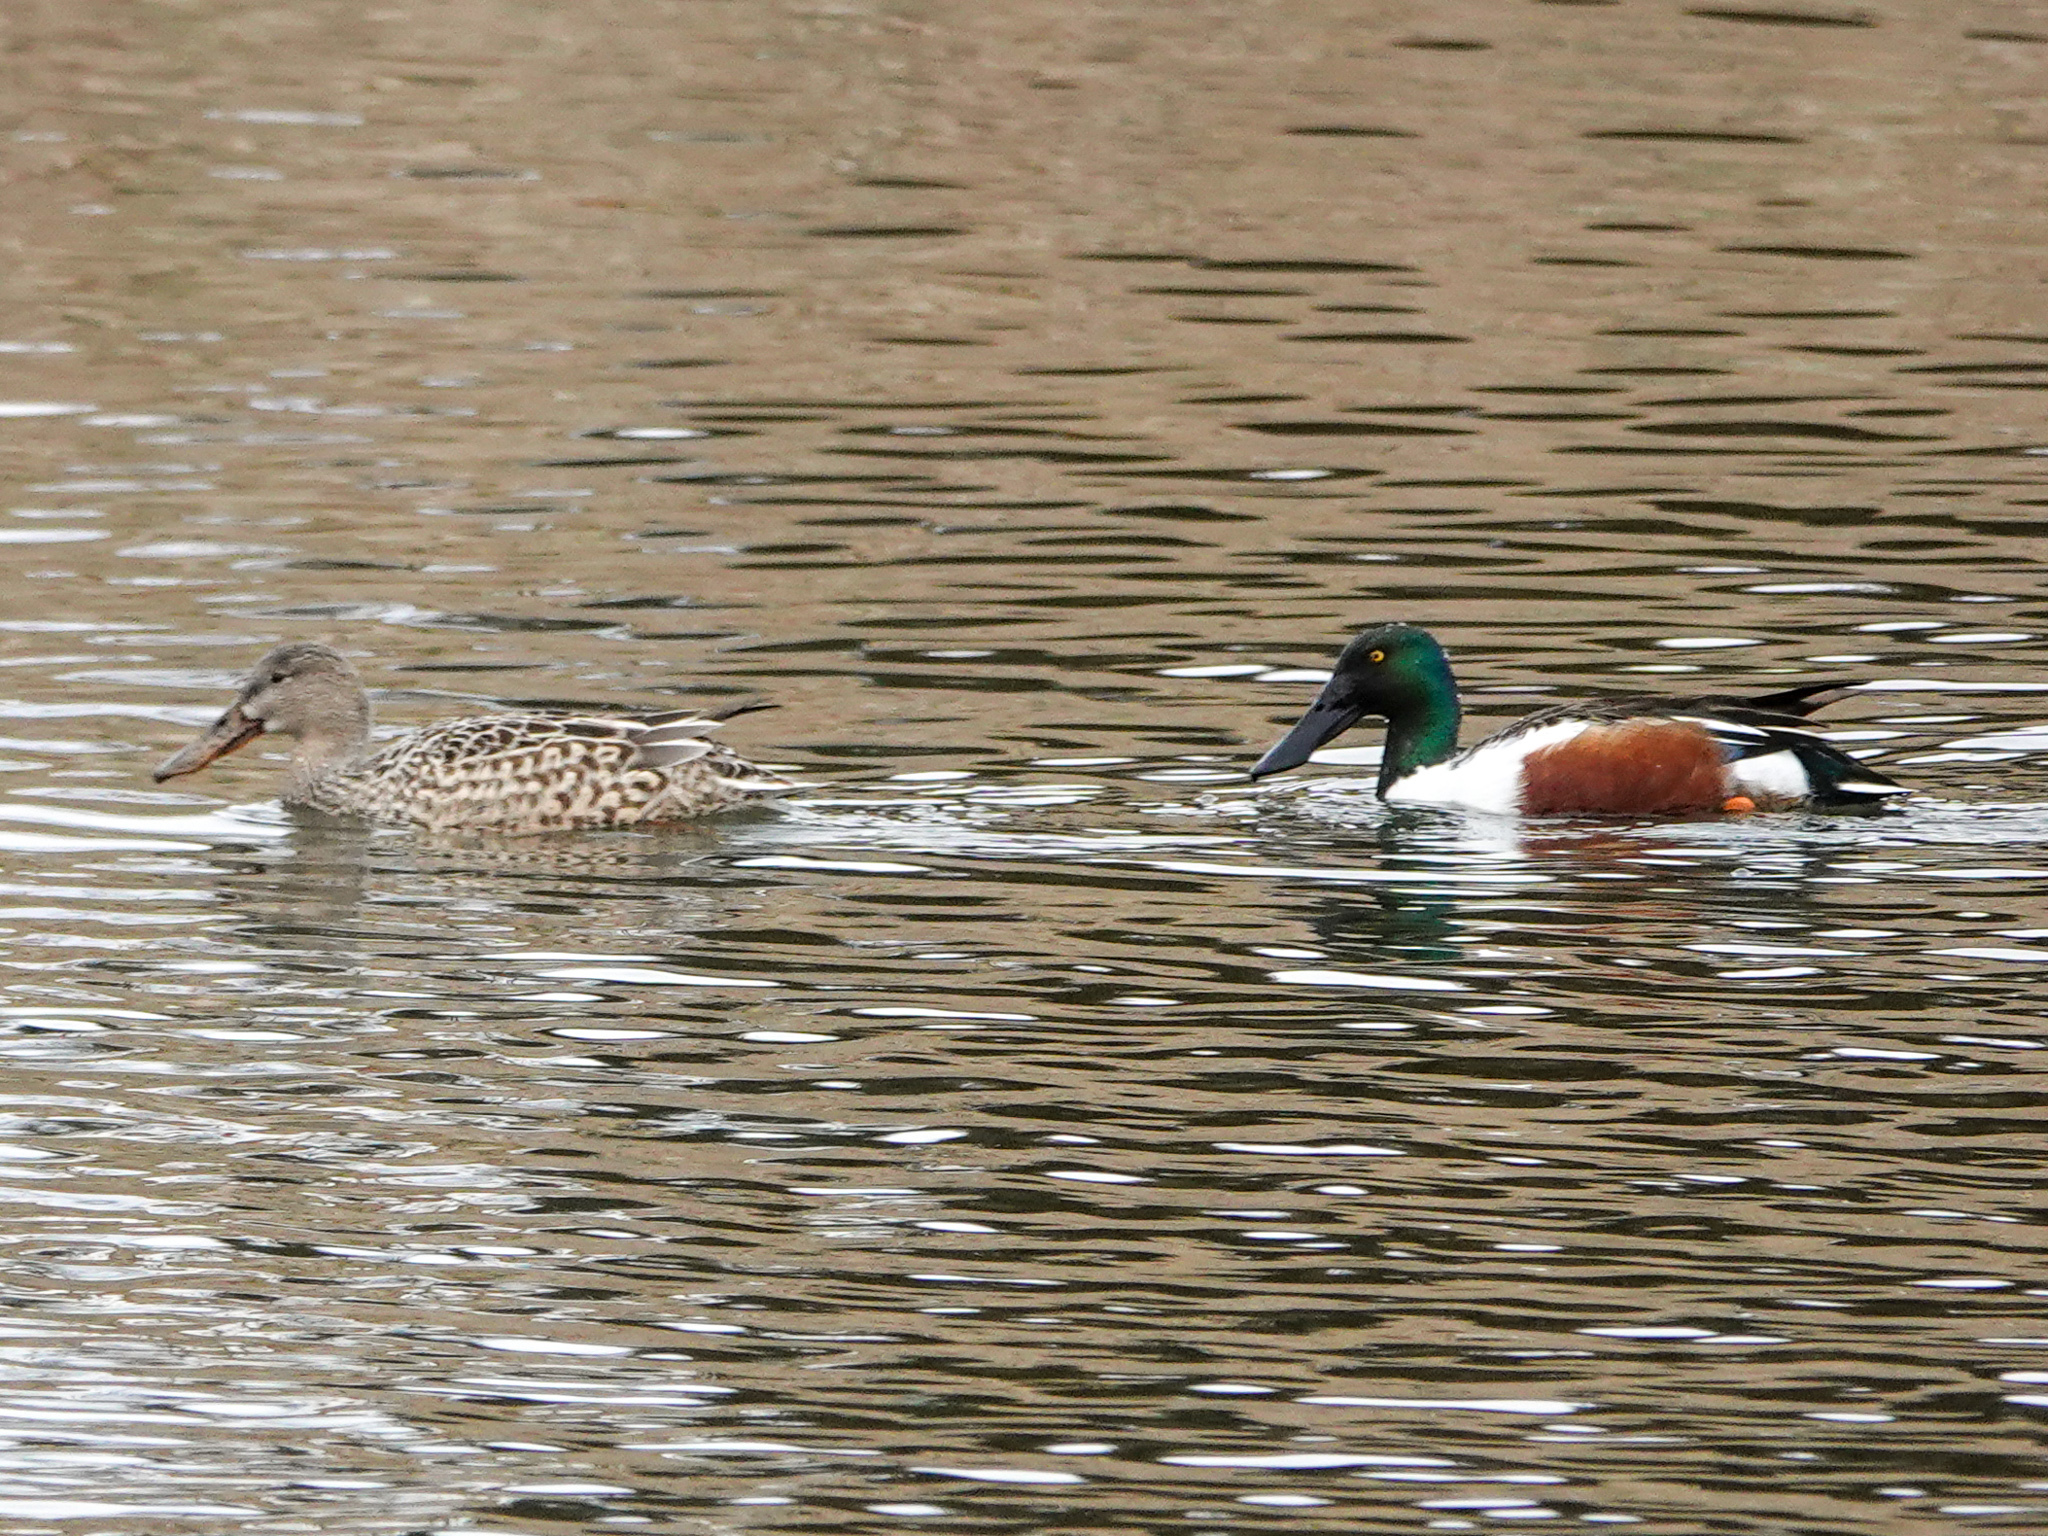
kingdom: Animalia
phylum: Chordata
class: Aves
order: Anseriformes
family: Anatidae
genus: Spatula
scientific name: Spatula clypeata
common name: Northern shoveler
